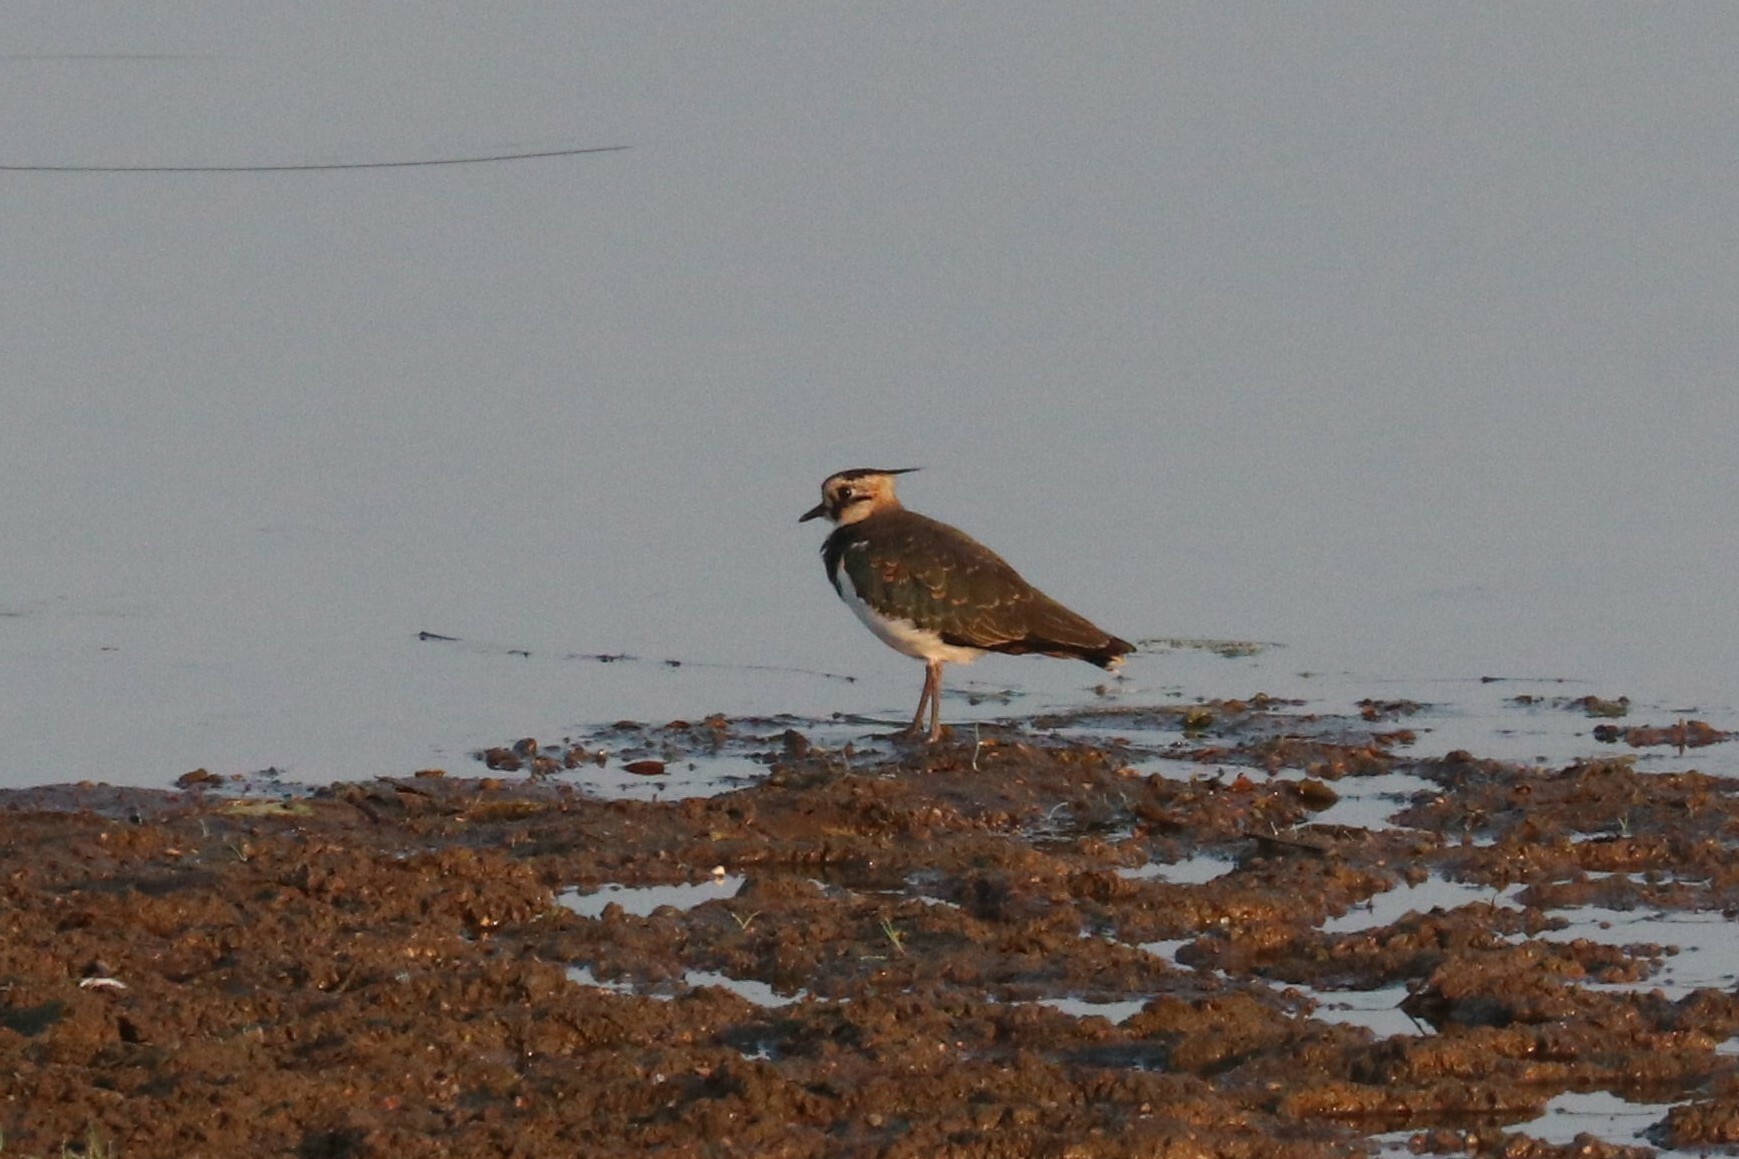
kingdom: Animalia
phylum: Chordata
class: Aves
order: Charadriiformes
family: Charadriidae
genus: Vanellus
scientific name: Vanellus vanellus
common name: Northern lapwing
